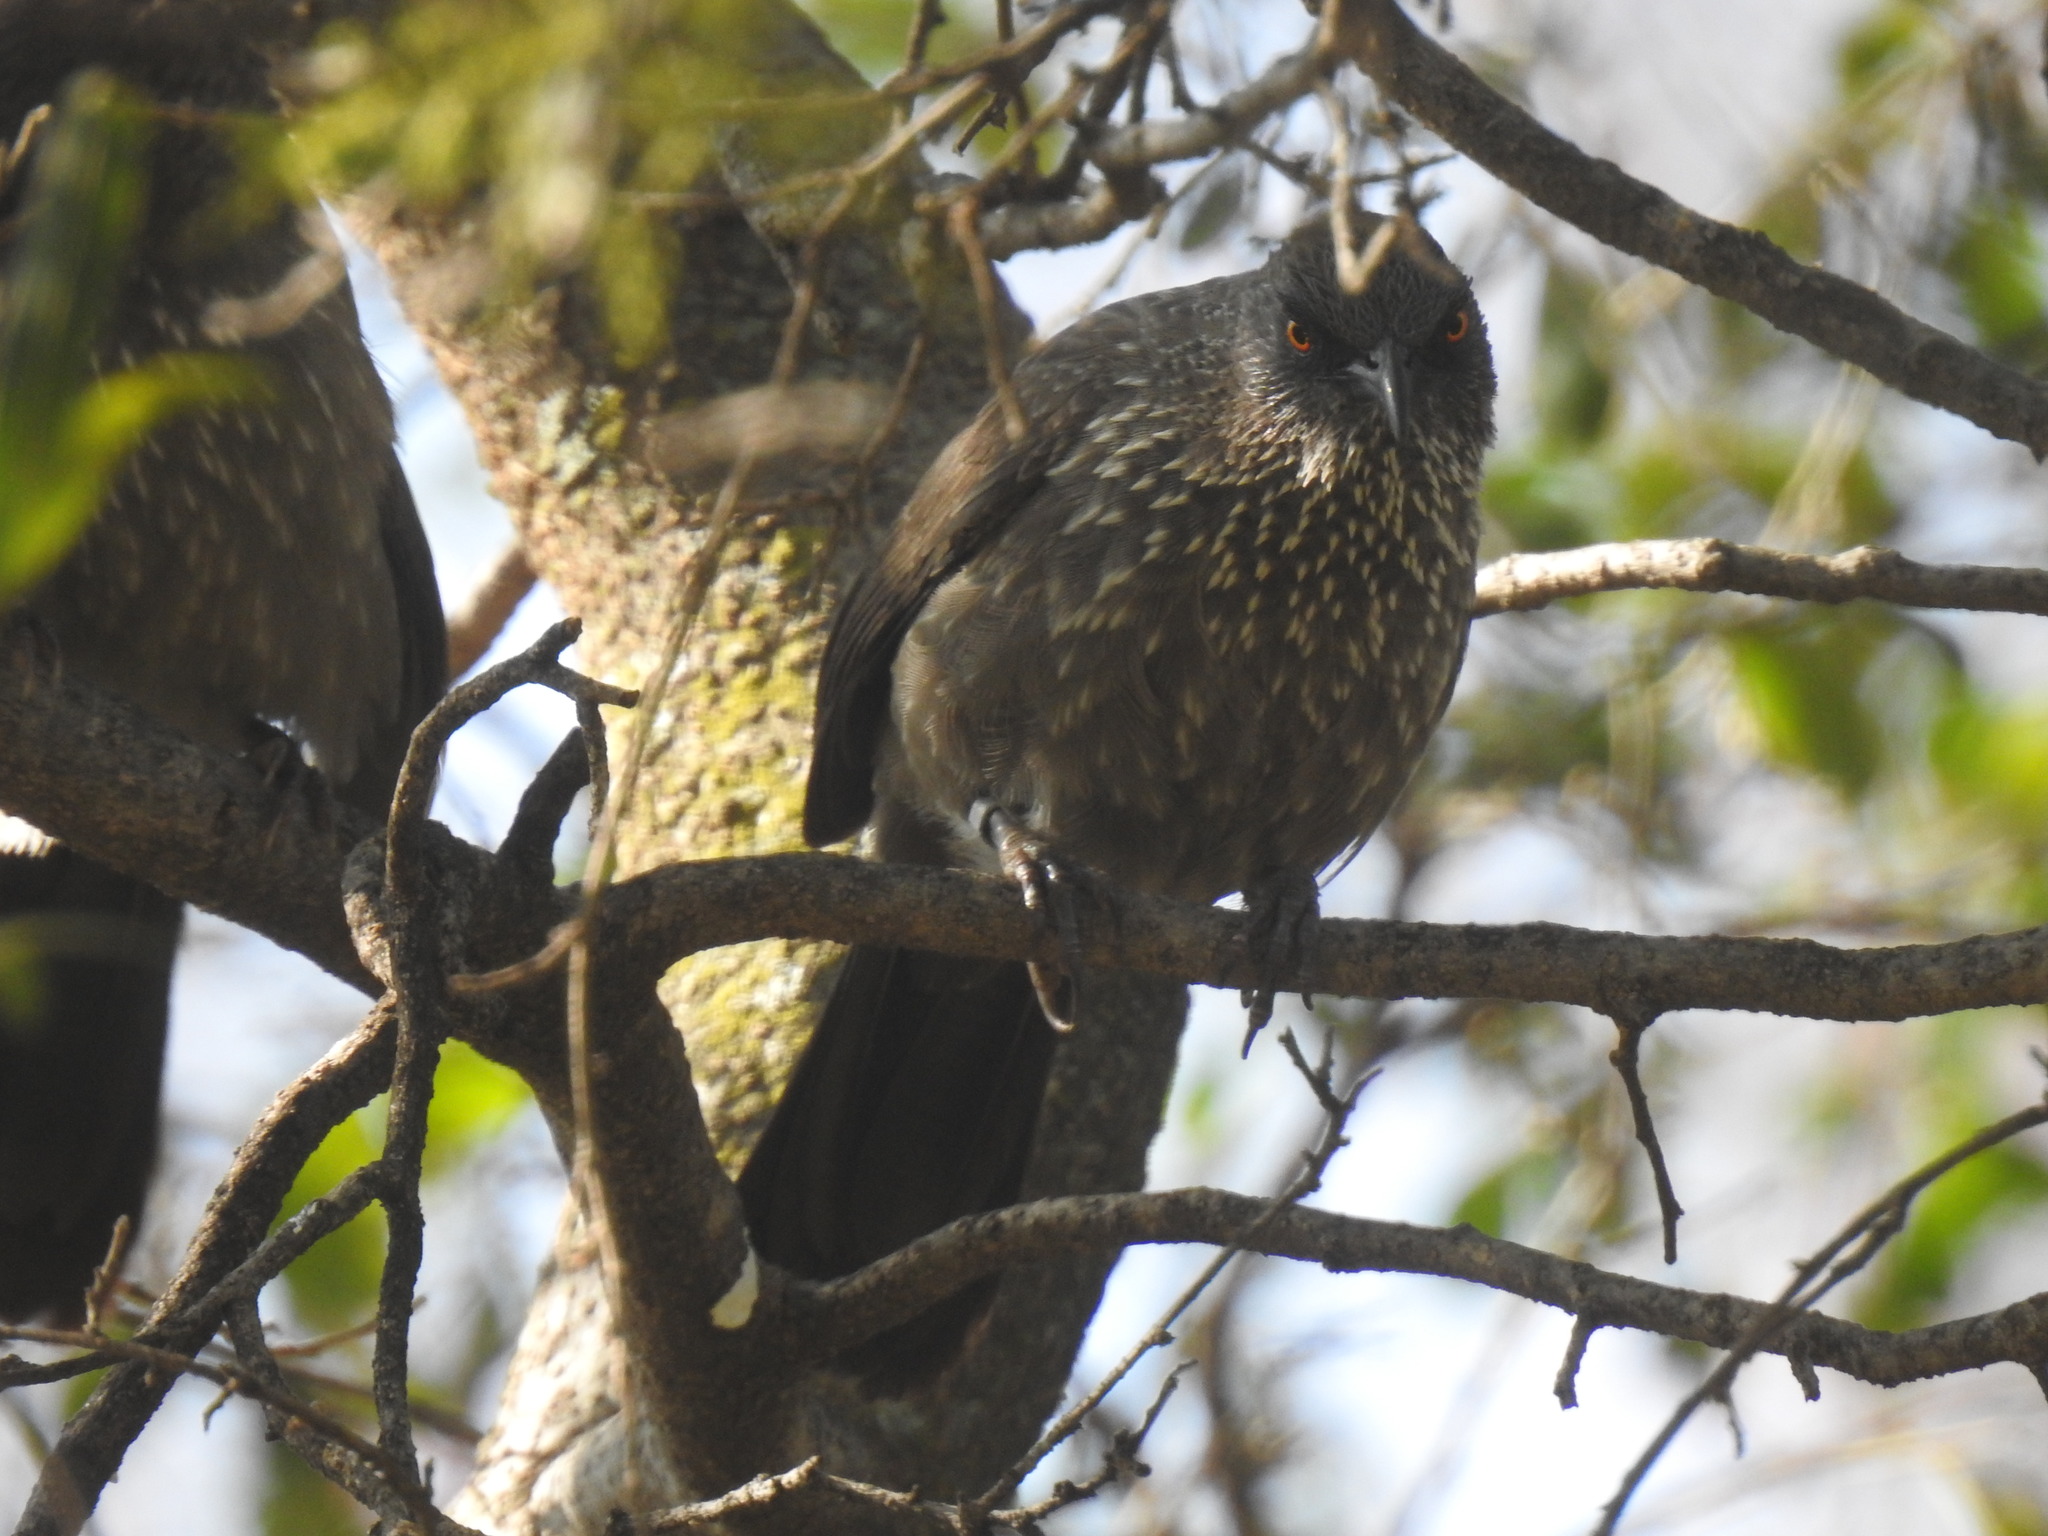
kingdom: Animalia
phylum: Chordata
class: Aves
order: Passeriformes
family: Leiothrichidae
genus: Turdoides
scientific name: Turdoides jardineii
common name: Arrow-marked babbler
